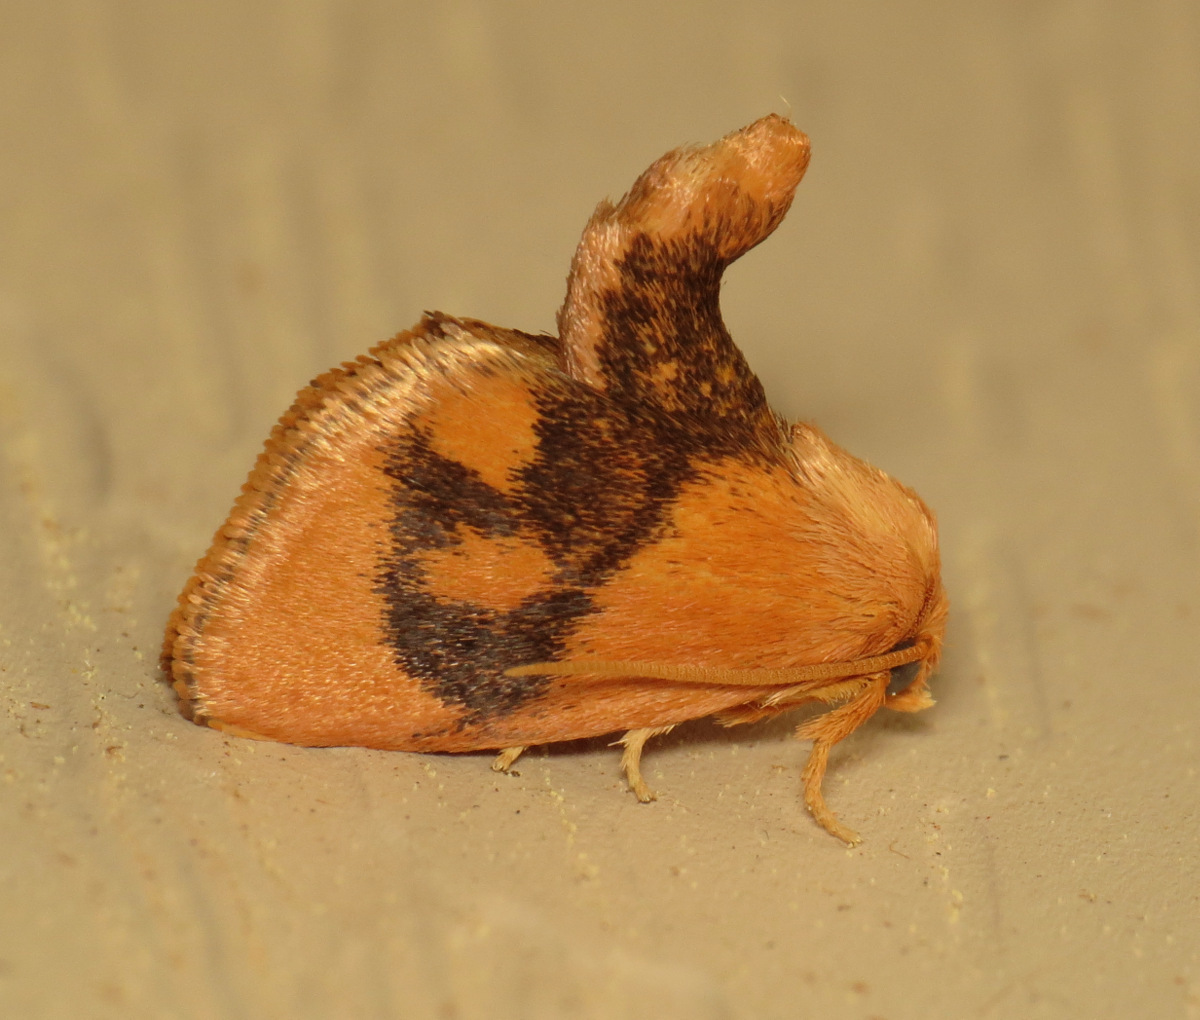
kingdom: Animalia
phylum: Arthropoda
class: Insecta
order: Lepidoptera
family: Limacodidae
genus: Tortricidia
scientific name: Tortricidia flexuosa
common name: Abbreviated button slug moth
